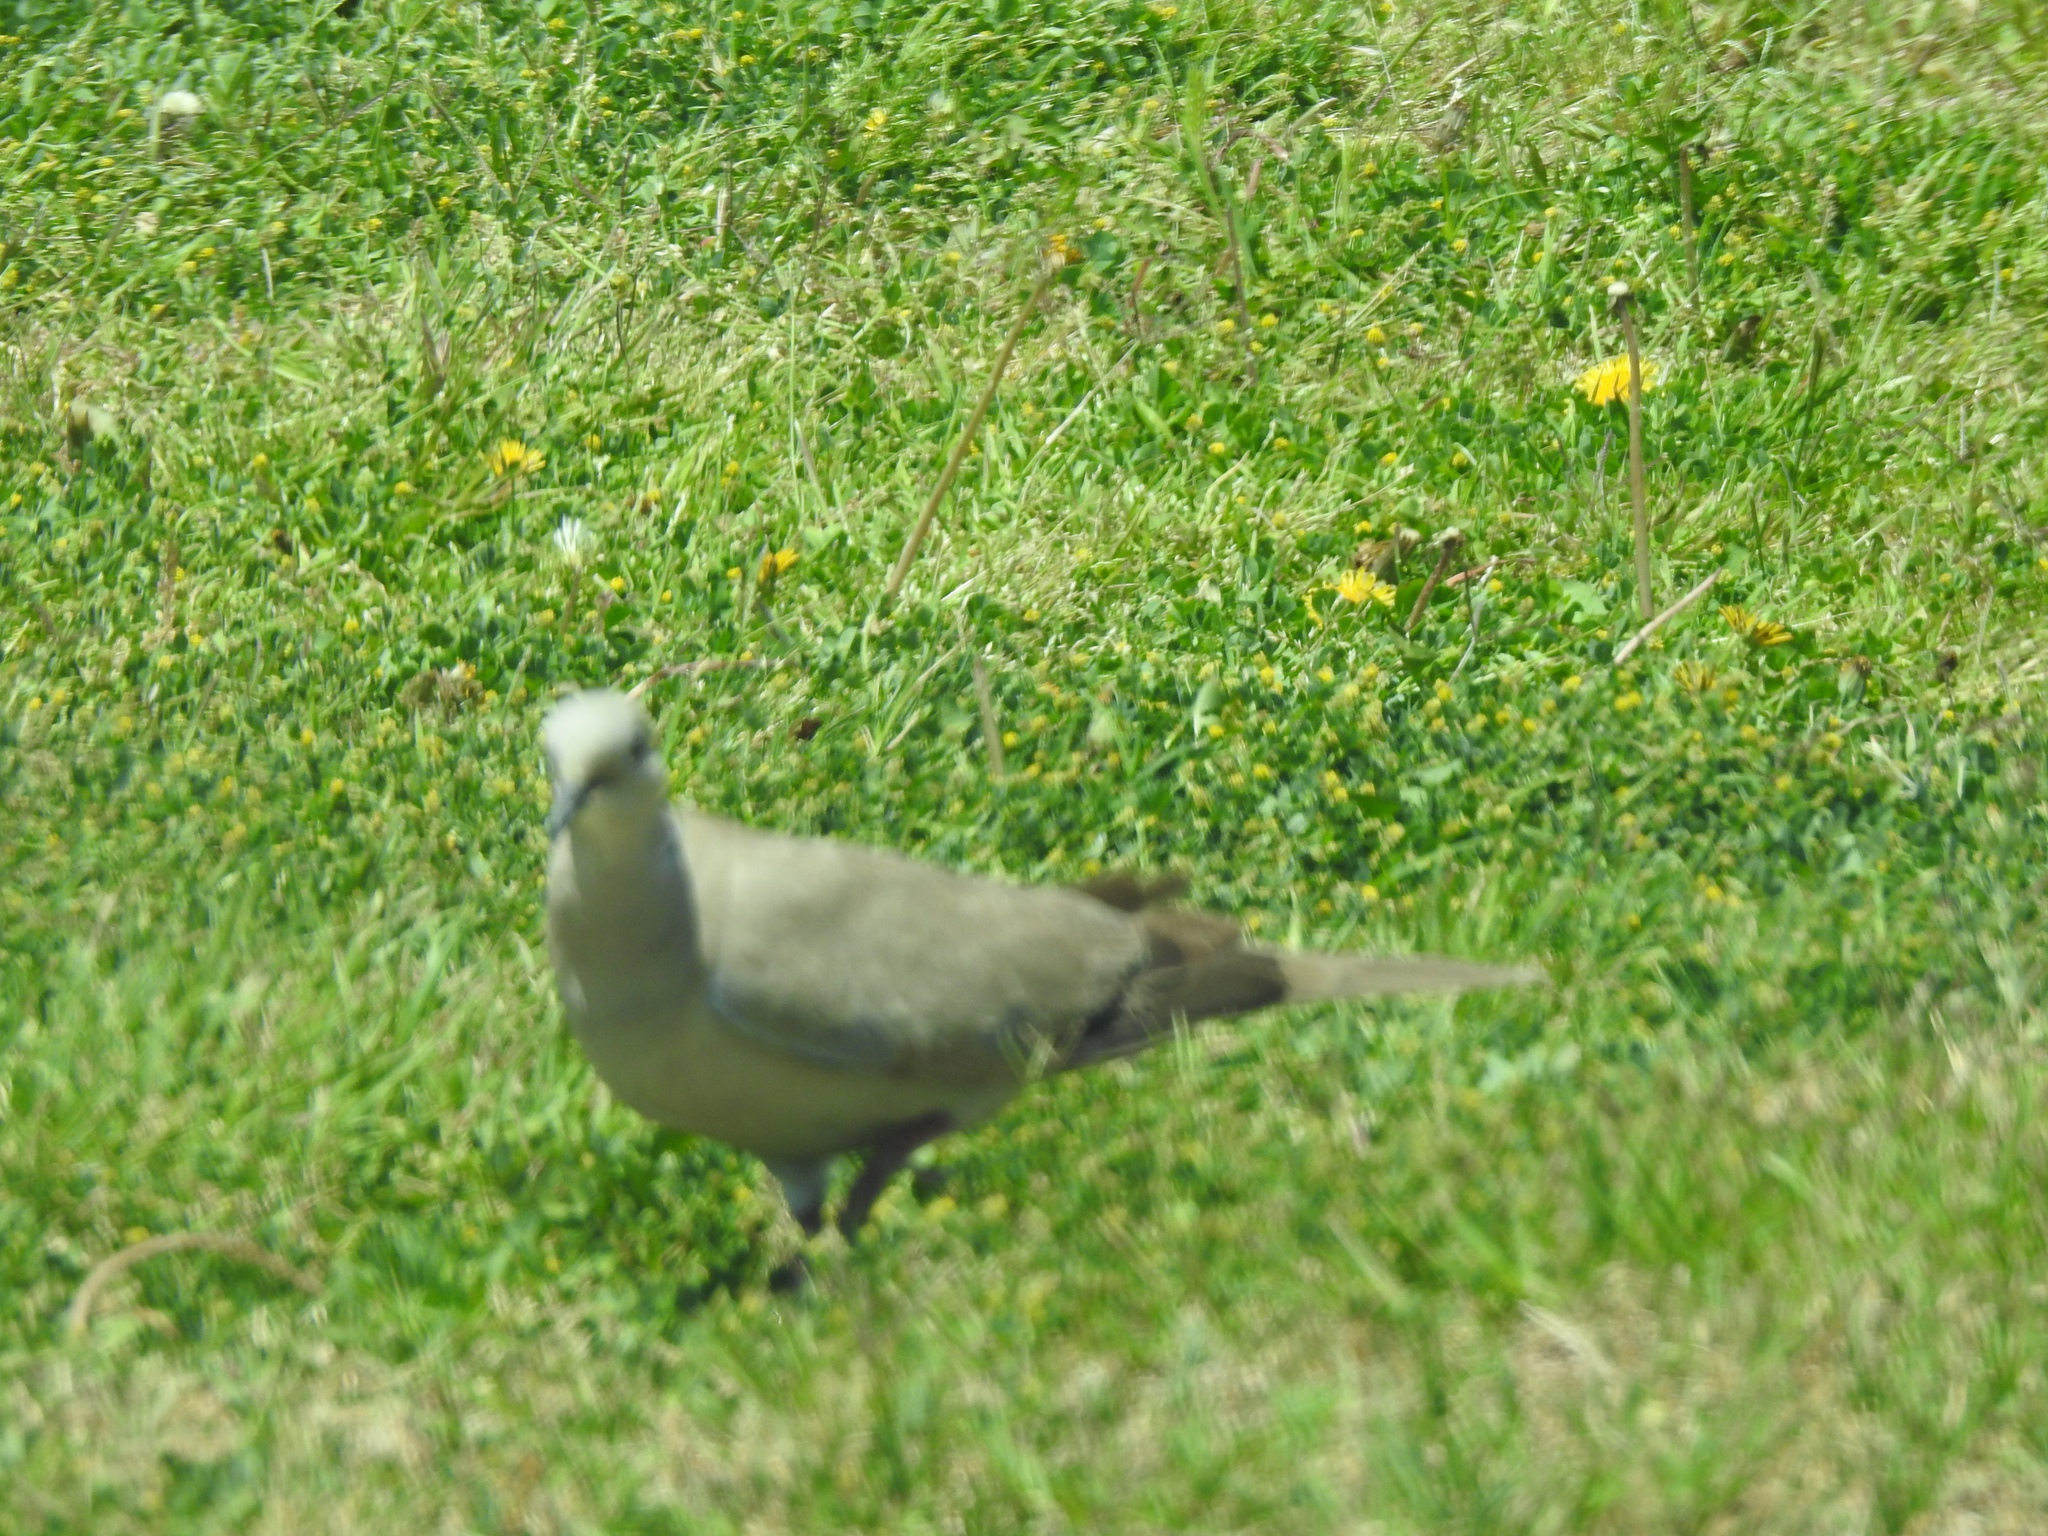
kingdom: Animalia
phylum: Chordata
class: Aves
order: Columbiformes
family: Columbidae
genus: Streptopelia
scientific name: Streptopelia decaocto
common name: Eurasian collared dove
